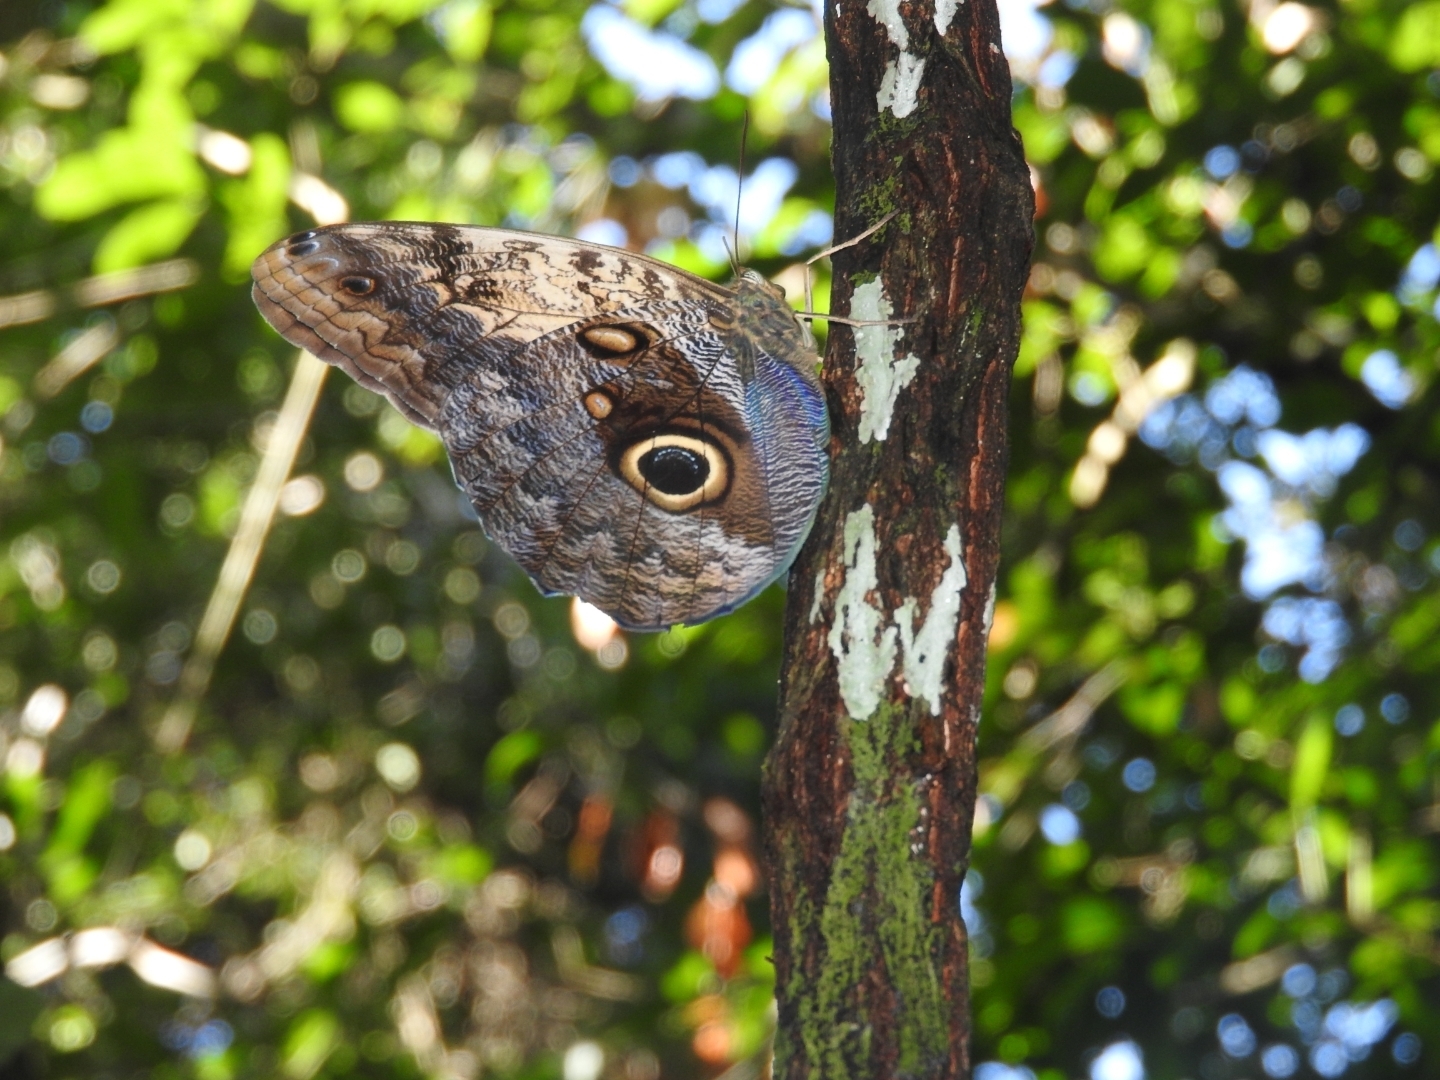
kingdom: Animalia
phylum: Arthropoda
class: Insecta
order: Lepidoptera
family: Nymphalidae
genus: Caligo
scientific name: Caligo telamonius
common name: Pale owl-butterfly
